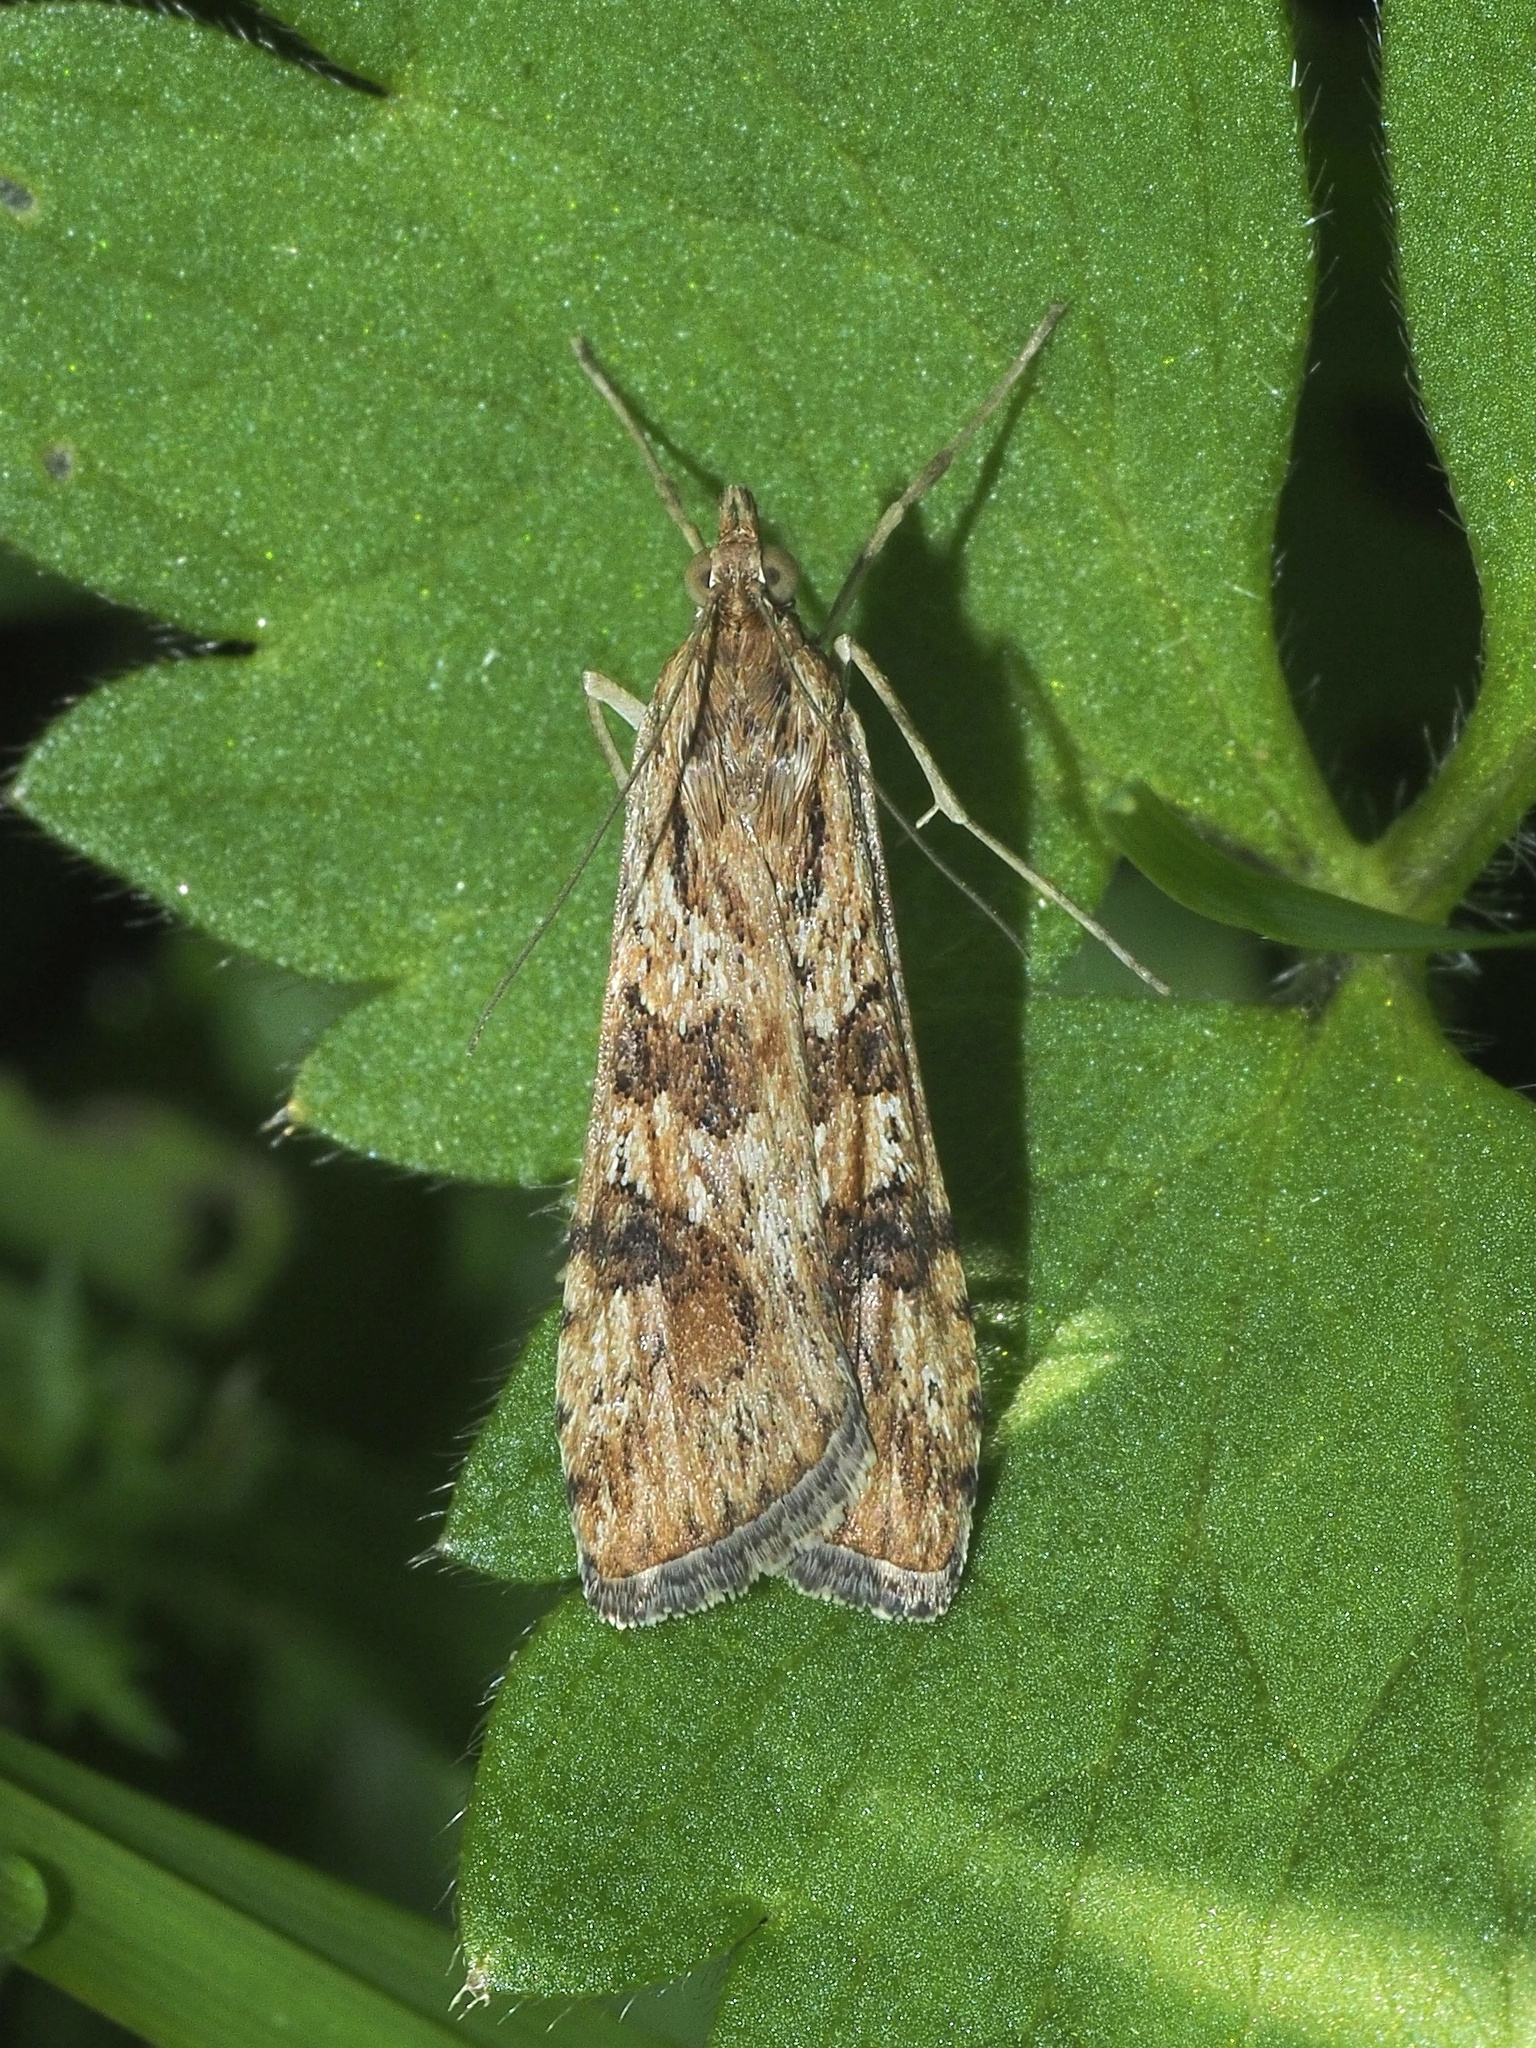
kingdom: Animalia
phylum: Arthropoda
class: Insecta
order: Lepidoptera
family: Crambidae
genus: Nomophila
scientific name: Nomophila noctuella
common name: Rush veneer
